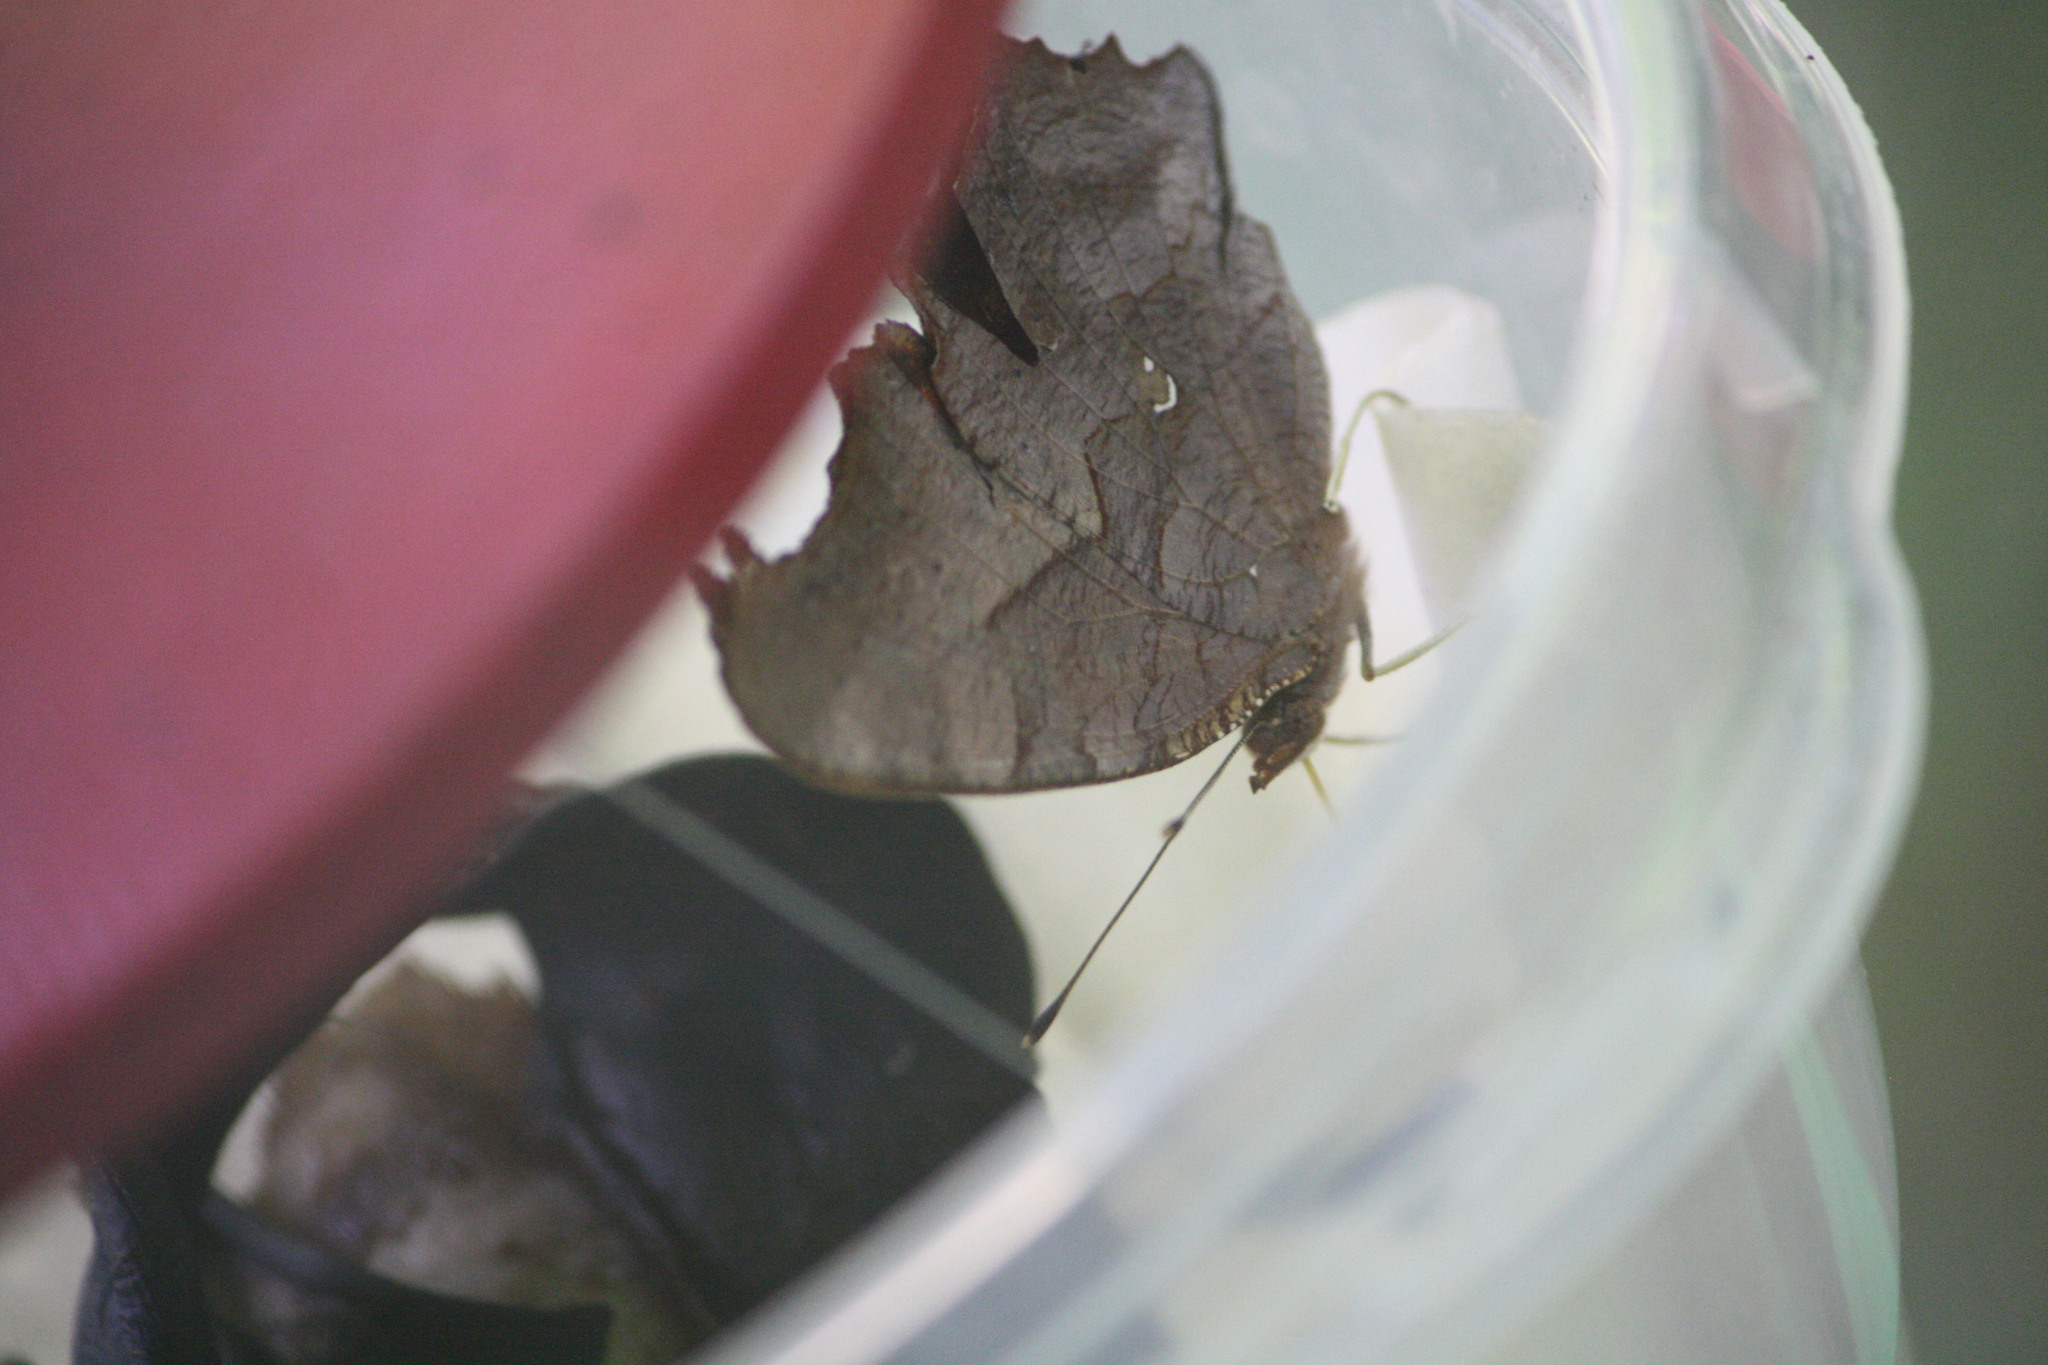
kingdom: Animalia
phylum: Arthropoda
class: Insecta
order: Lepidoptera
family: Nymphalidae
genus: Polygonia
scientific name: Polygonia interrogationis
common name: Question mark
